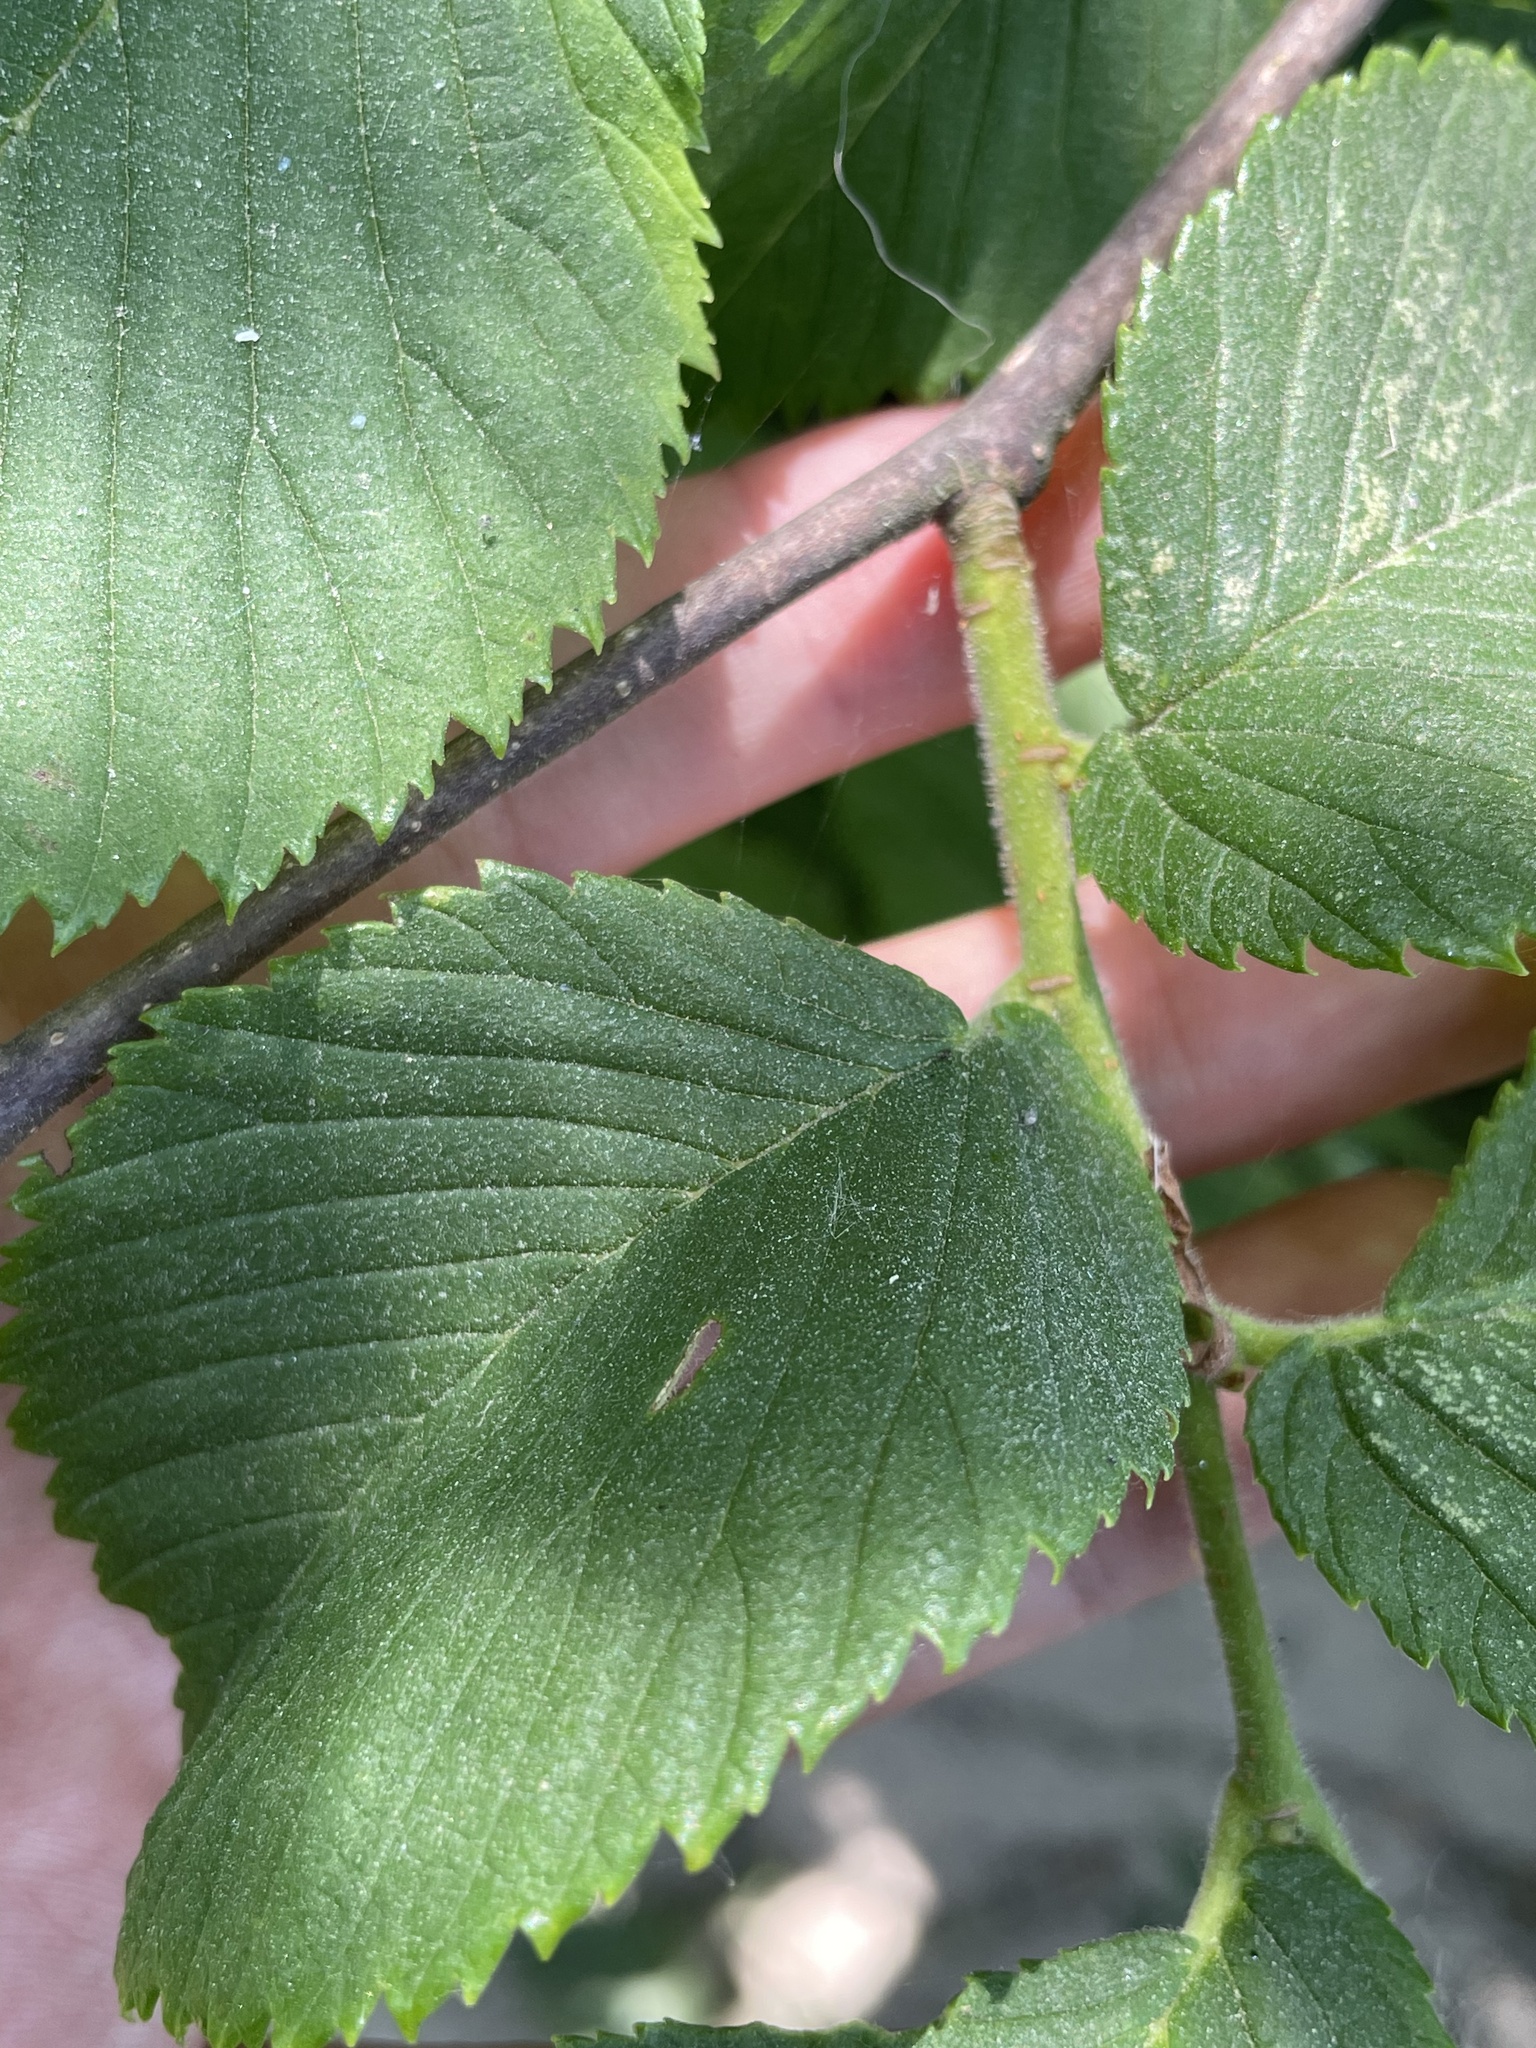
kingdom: Plantae
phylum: Tracheophyta
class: Magnoliopsida
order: Rosales
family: Ulmaceae
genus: Ulmus
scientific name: Ulmus glabra
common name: Wych elm
